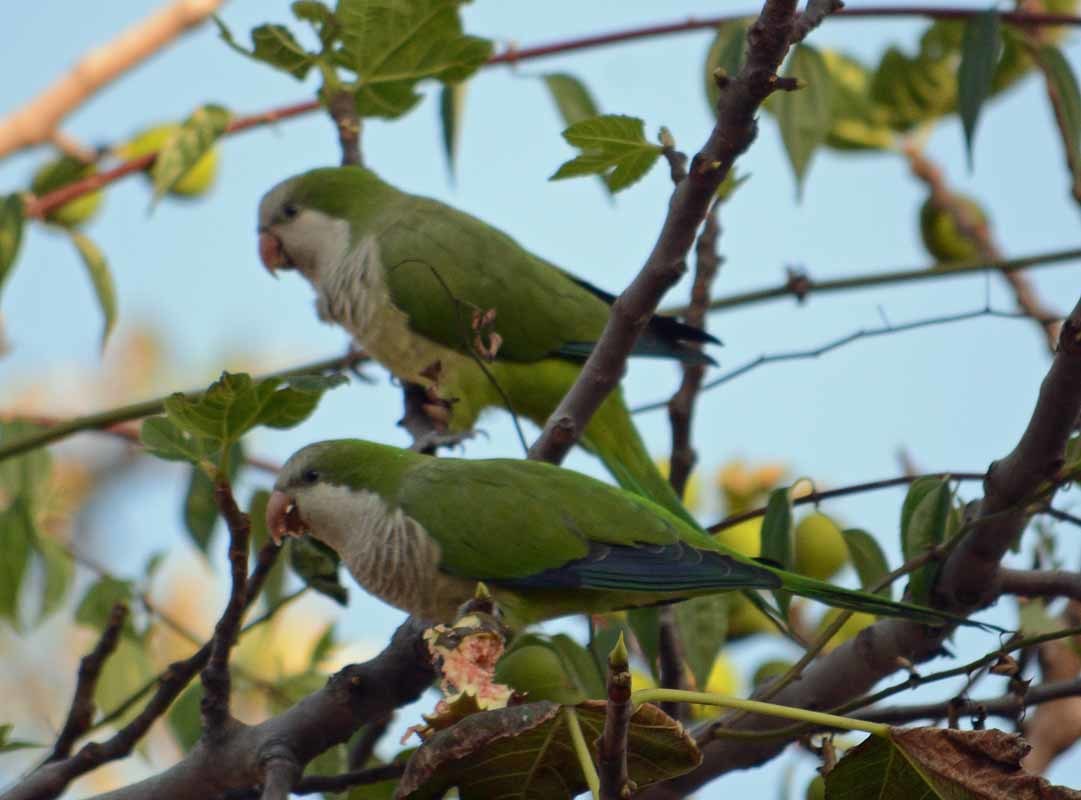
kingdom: Animalia
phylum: Chordata
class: Aves
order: Psittaciformes
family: Psittacidae
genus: Myiopsitta
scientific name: Myiopsitta monachus
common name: Monk parakeet
